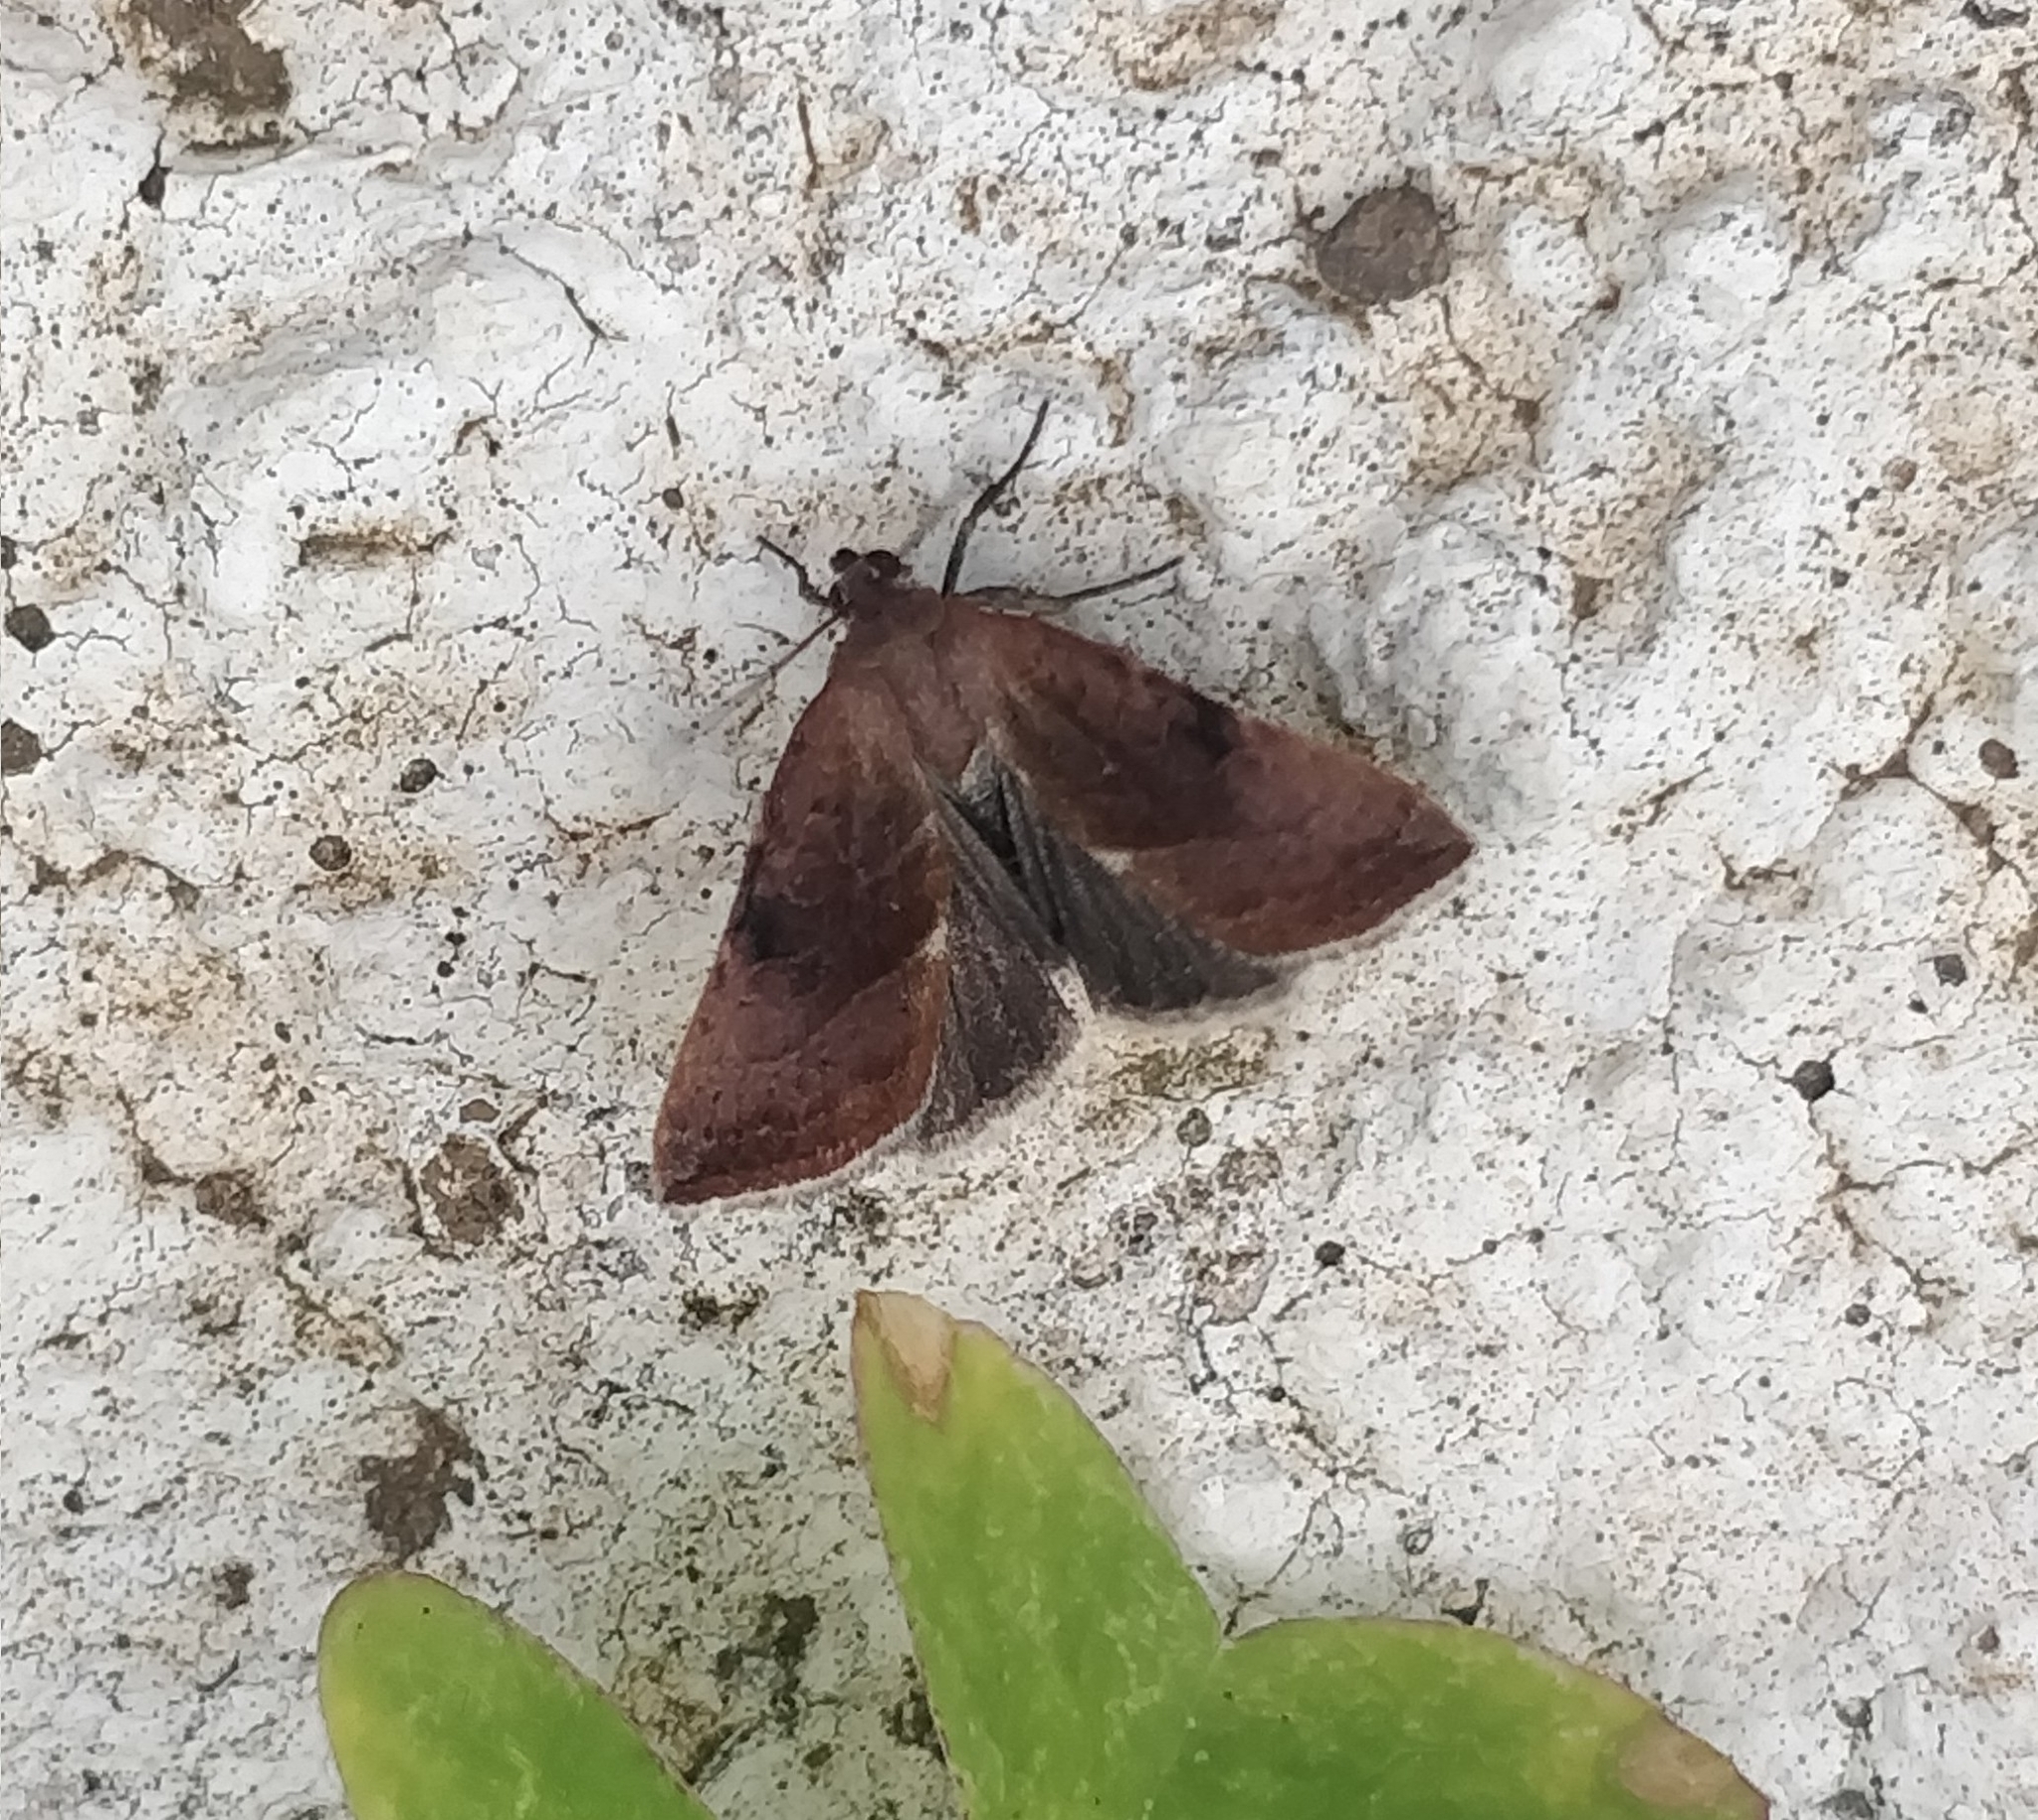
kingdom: Animalia
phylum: Arthropoda
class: Insecta
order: Lepidoptera
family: Noctuidae
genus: Galgula
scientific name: Galgula partita
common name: Wedgeling
